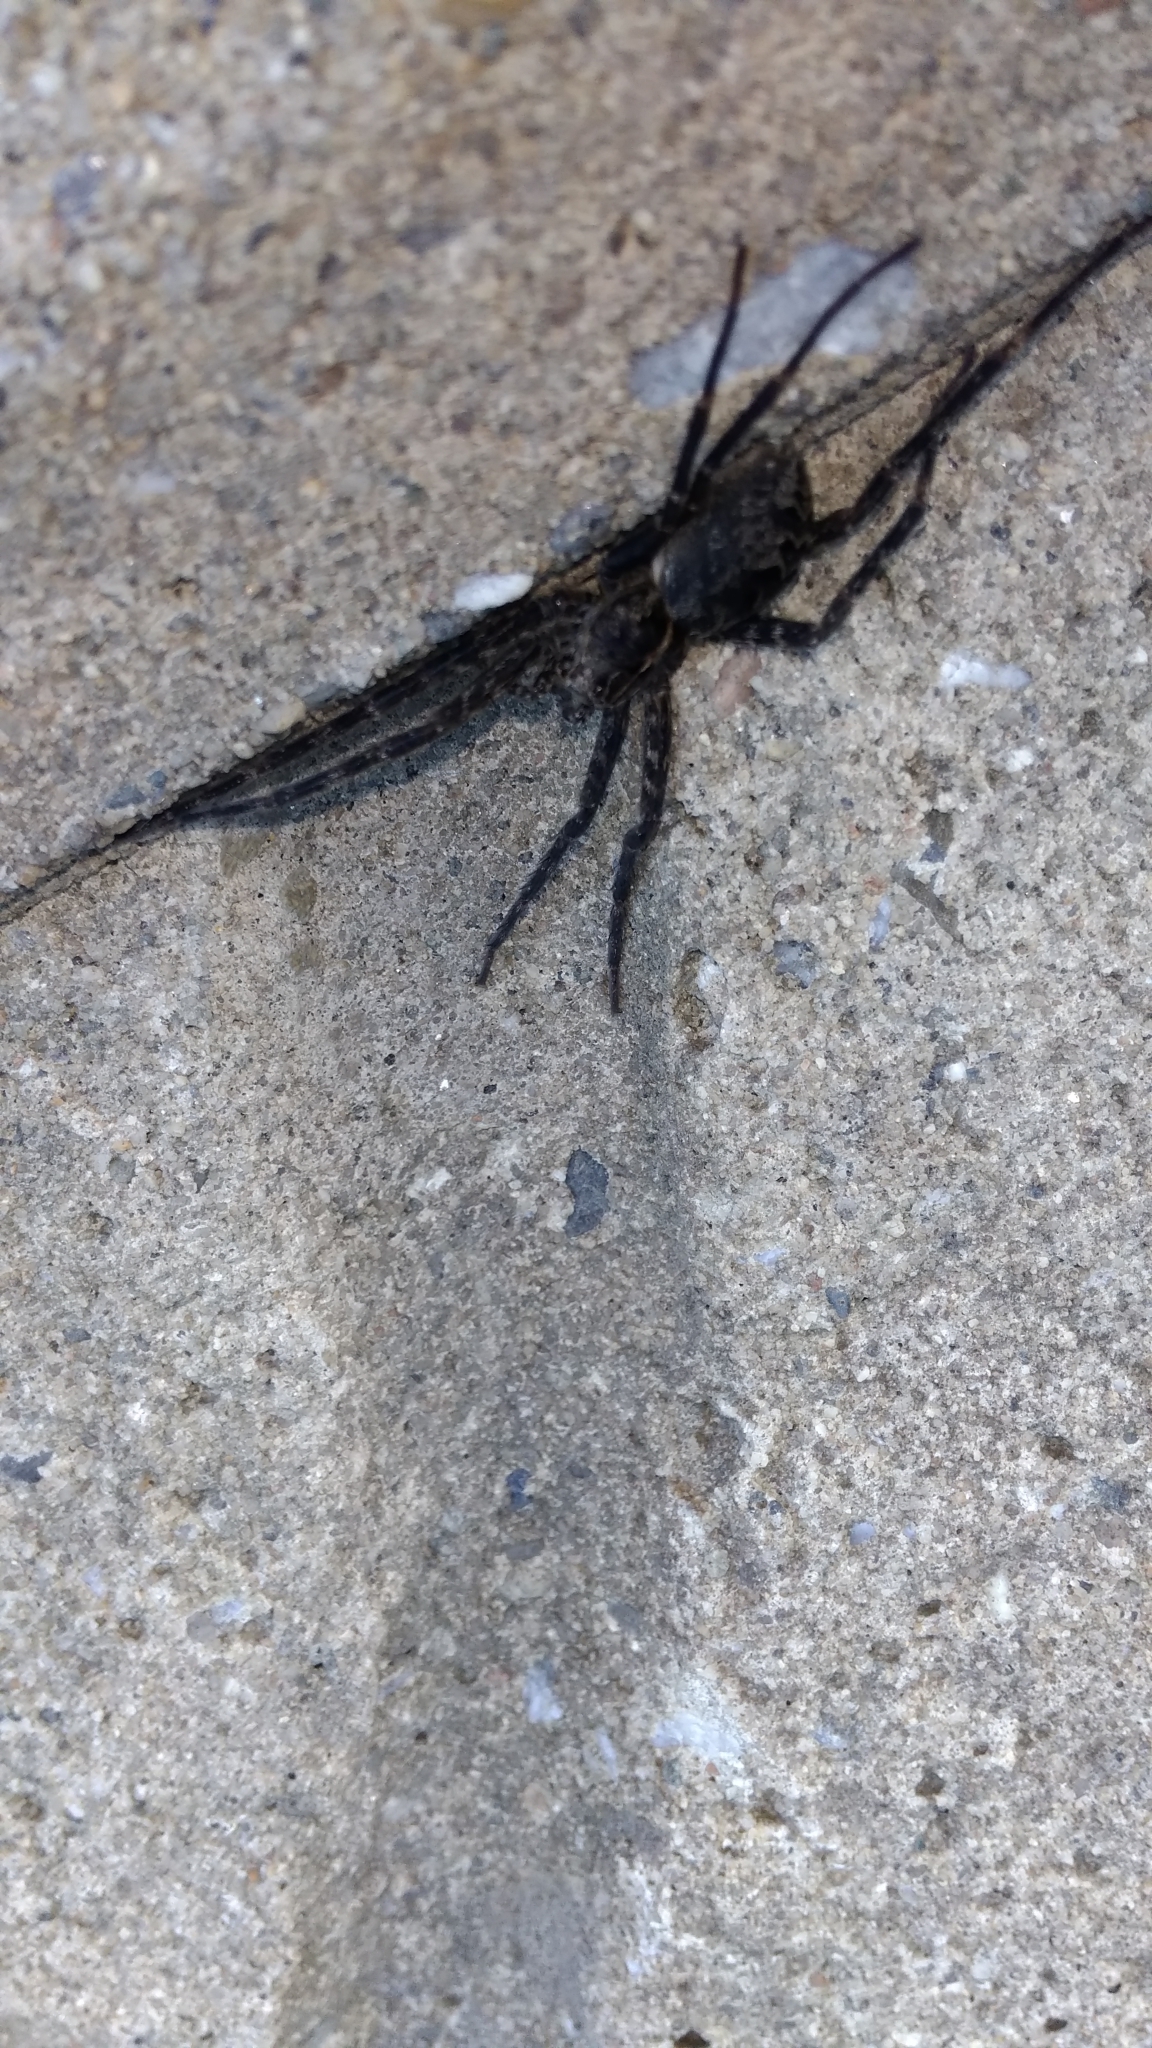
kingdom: Animalia
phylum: Arthropoda
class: Arachnida
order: Araneae
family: Pisauridae
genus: Dolomedes
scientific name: Dolomedes scriptus
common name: Striped fishing spider
